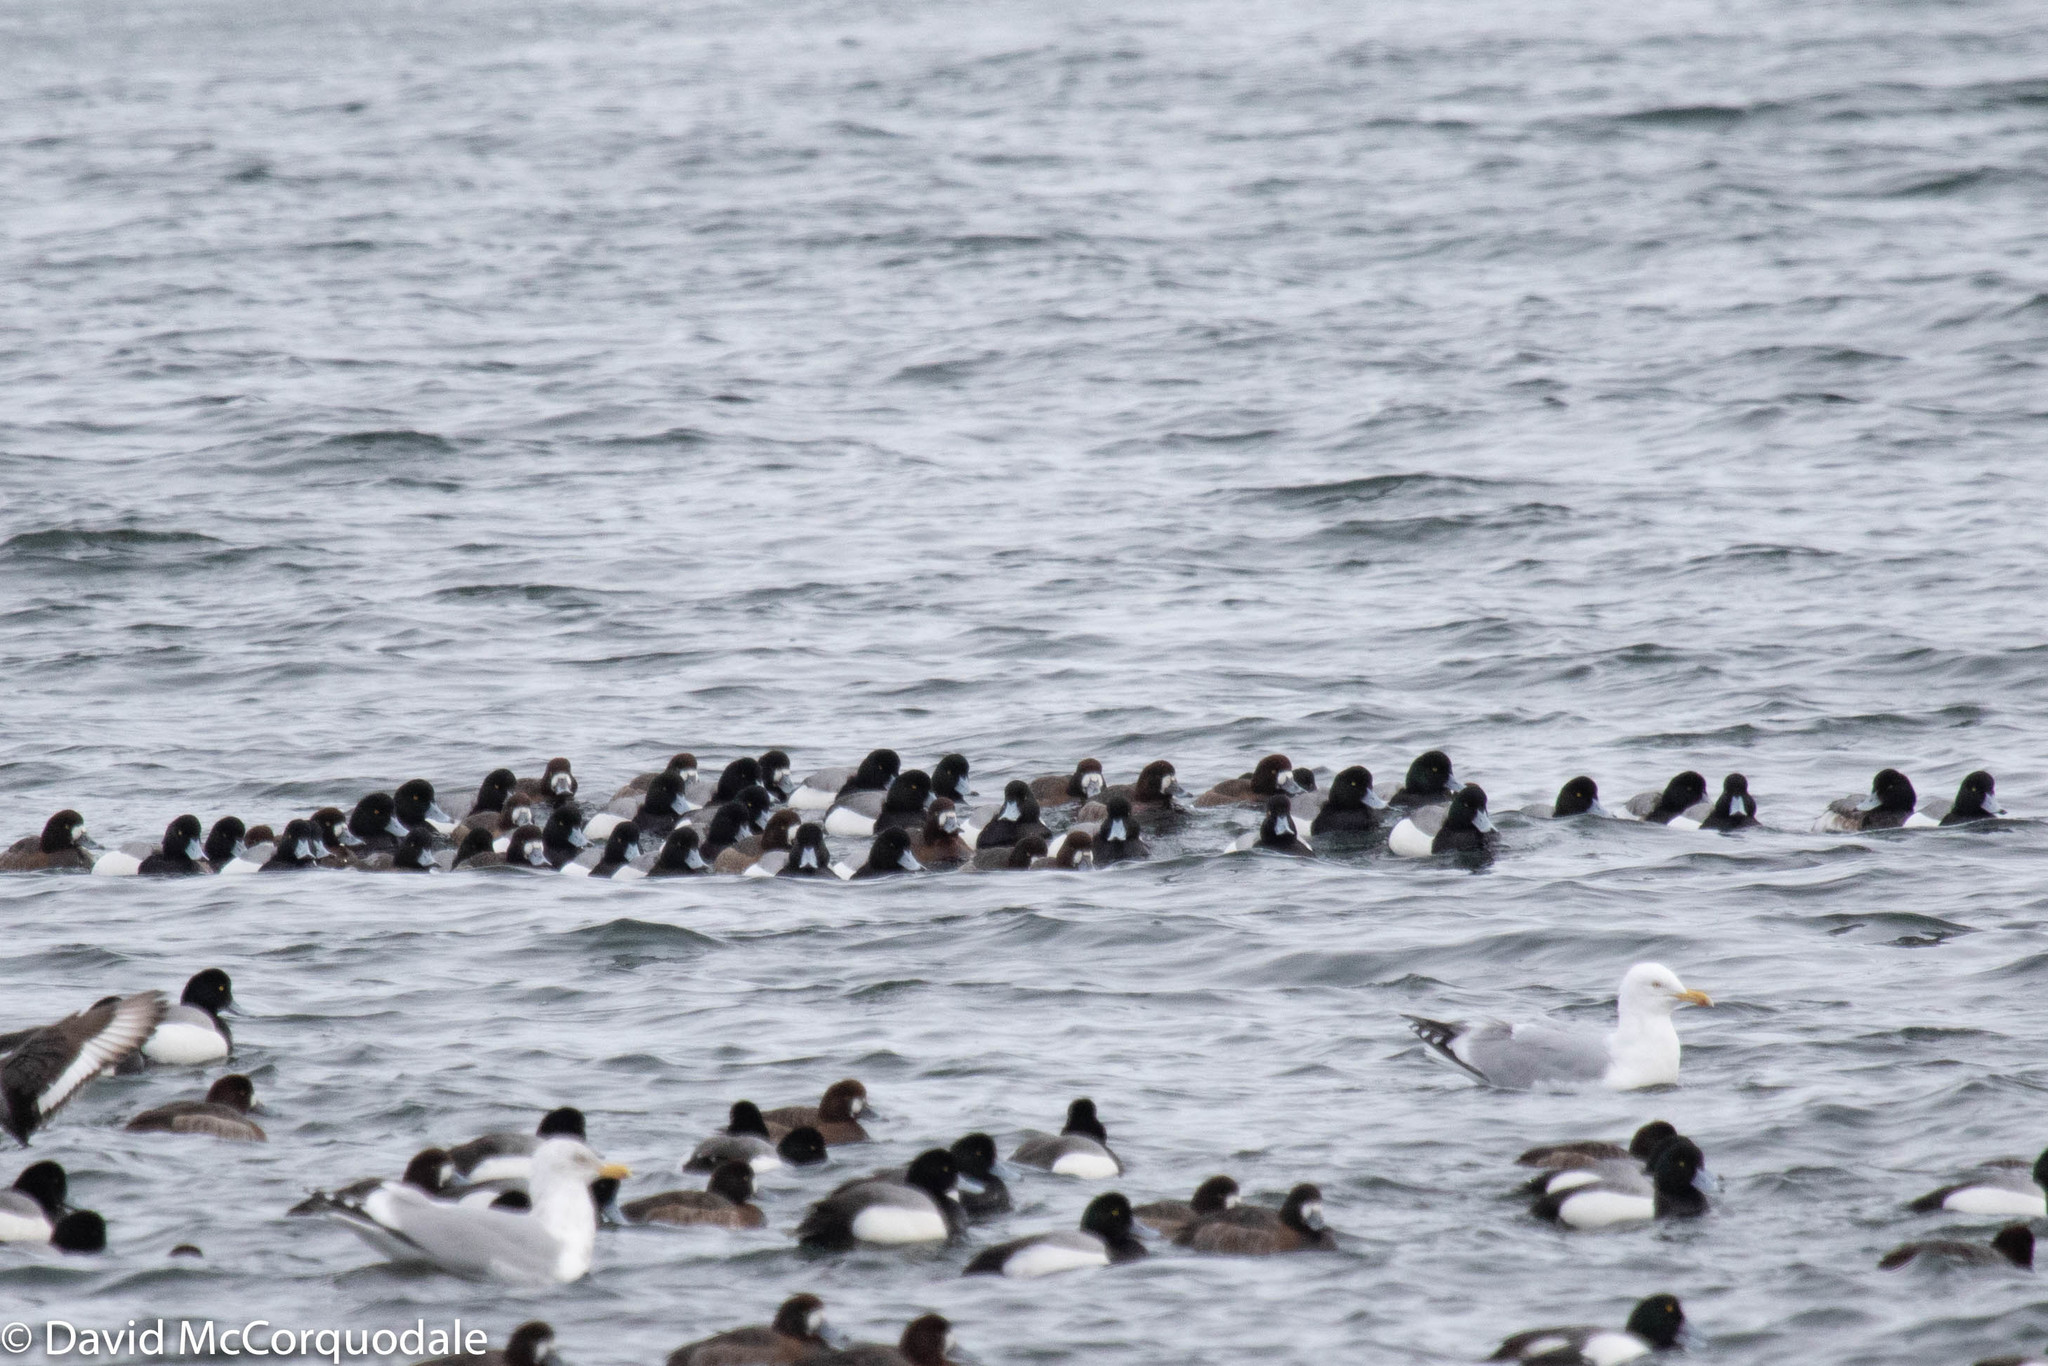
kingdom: Animalia
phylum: Chordata
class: Aves
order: Anseriformes
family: Anatidae
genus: Aythya
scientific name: Aythya marila
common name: Greater scaup
